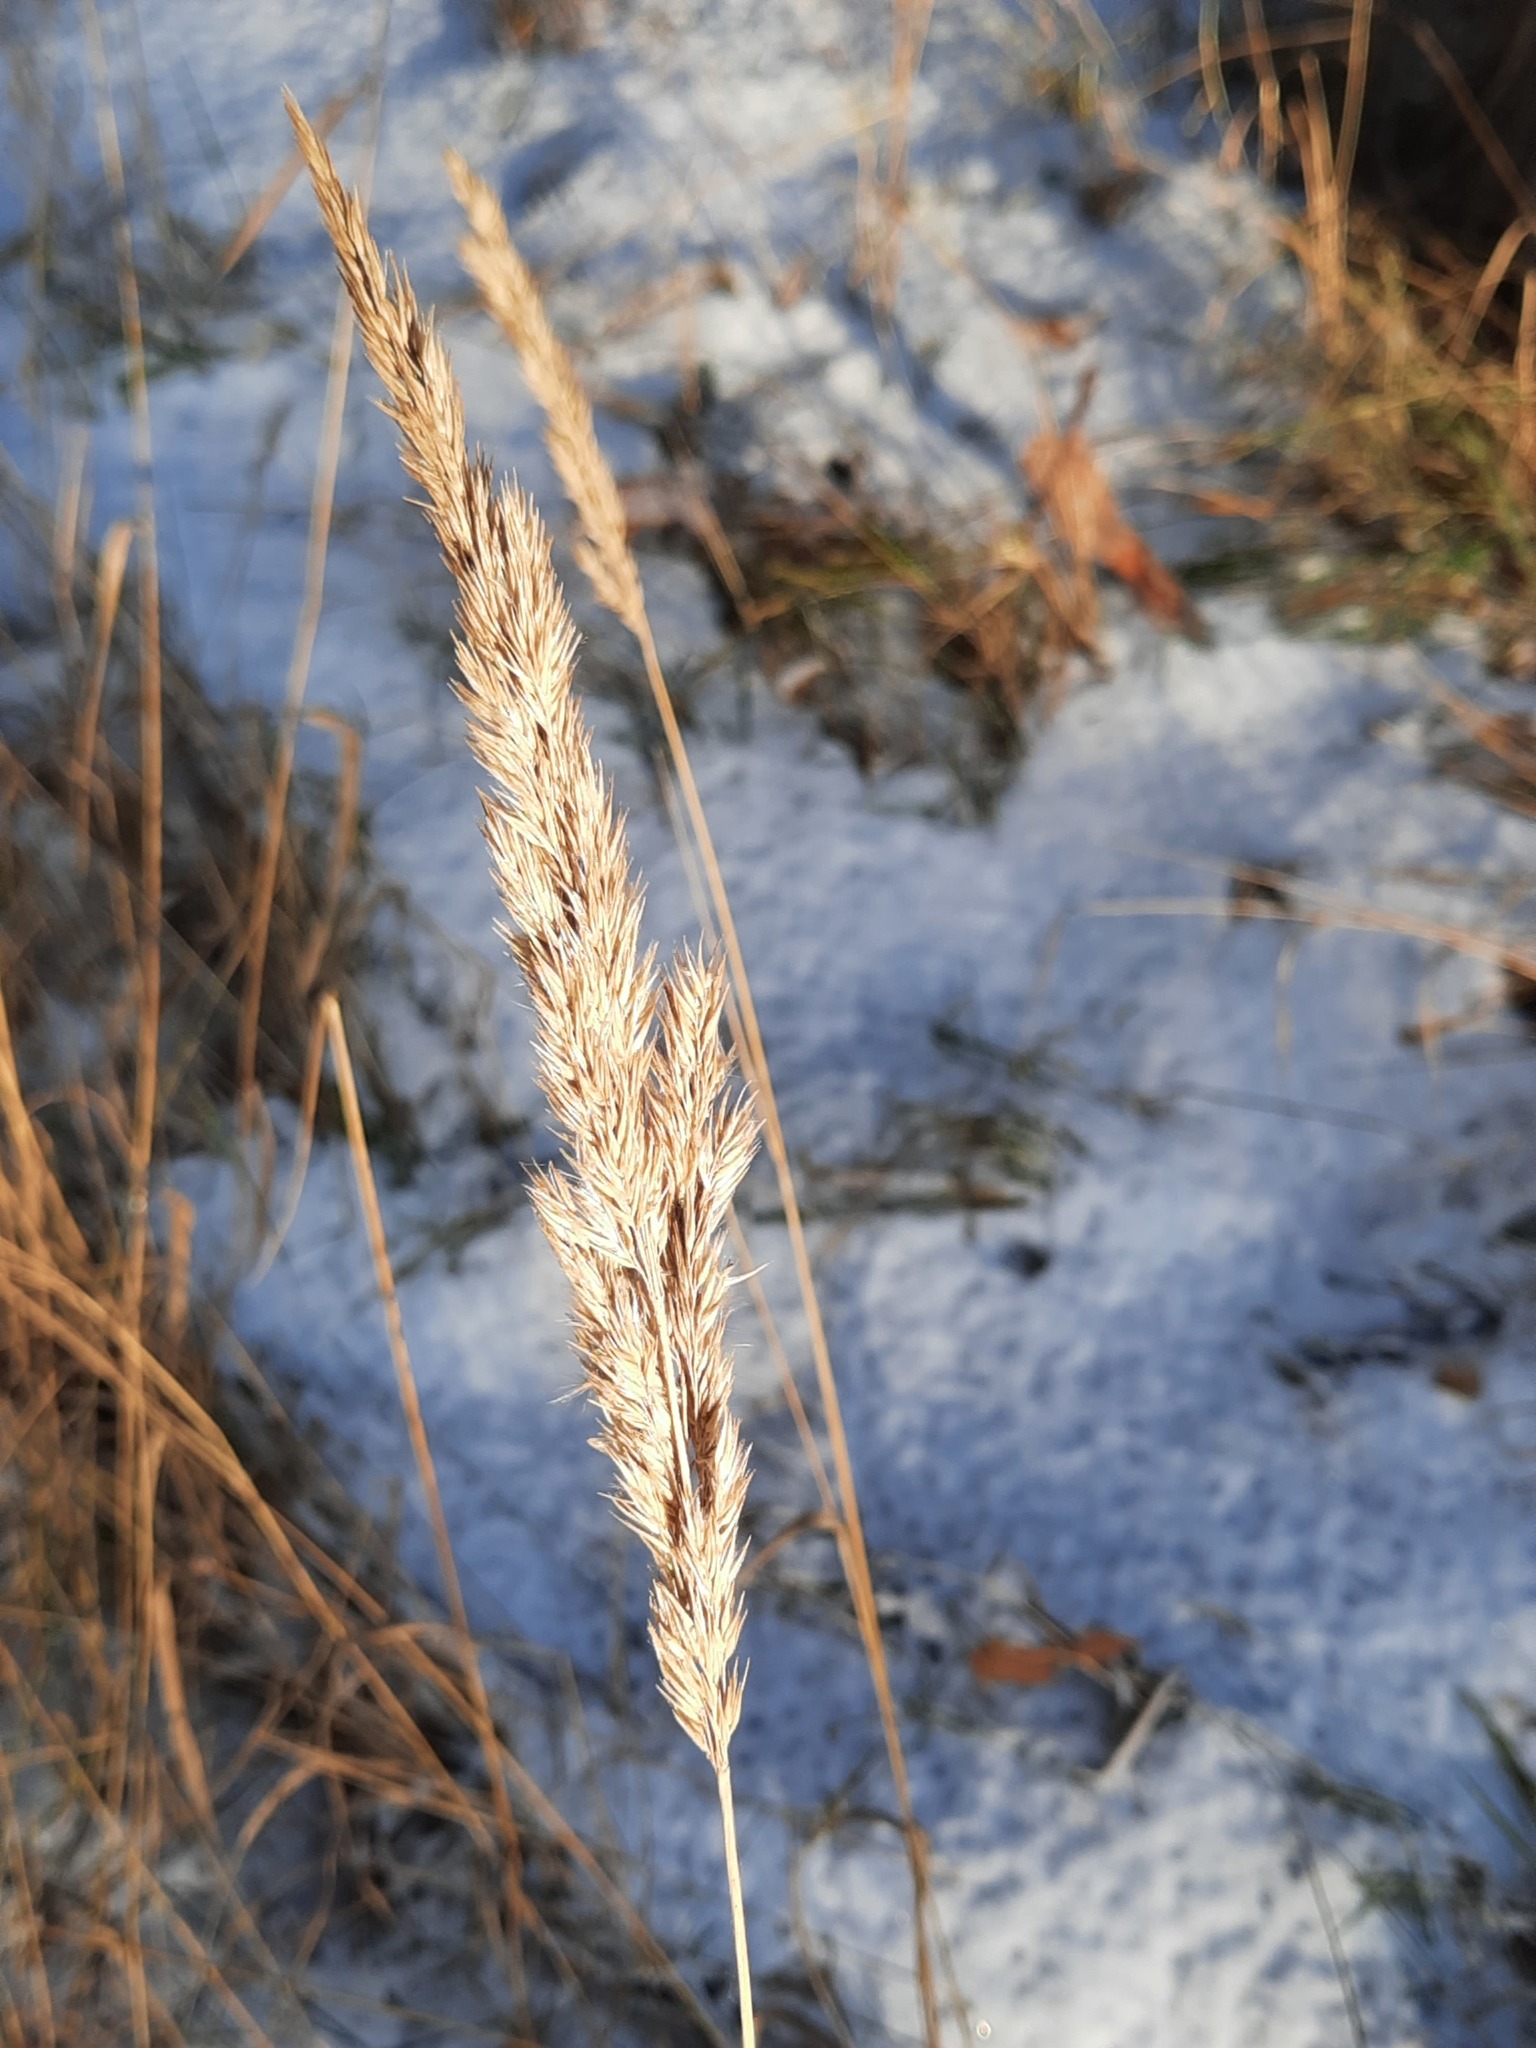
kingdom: Plantae
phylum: Tracheophyta
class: Liliopsida
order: Poales
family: Poaceae
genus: Calamagrostis
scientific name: Calamagrostis epigejos
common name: Wood small-reed
